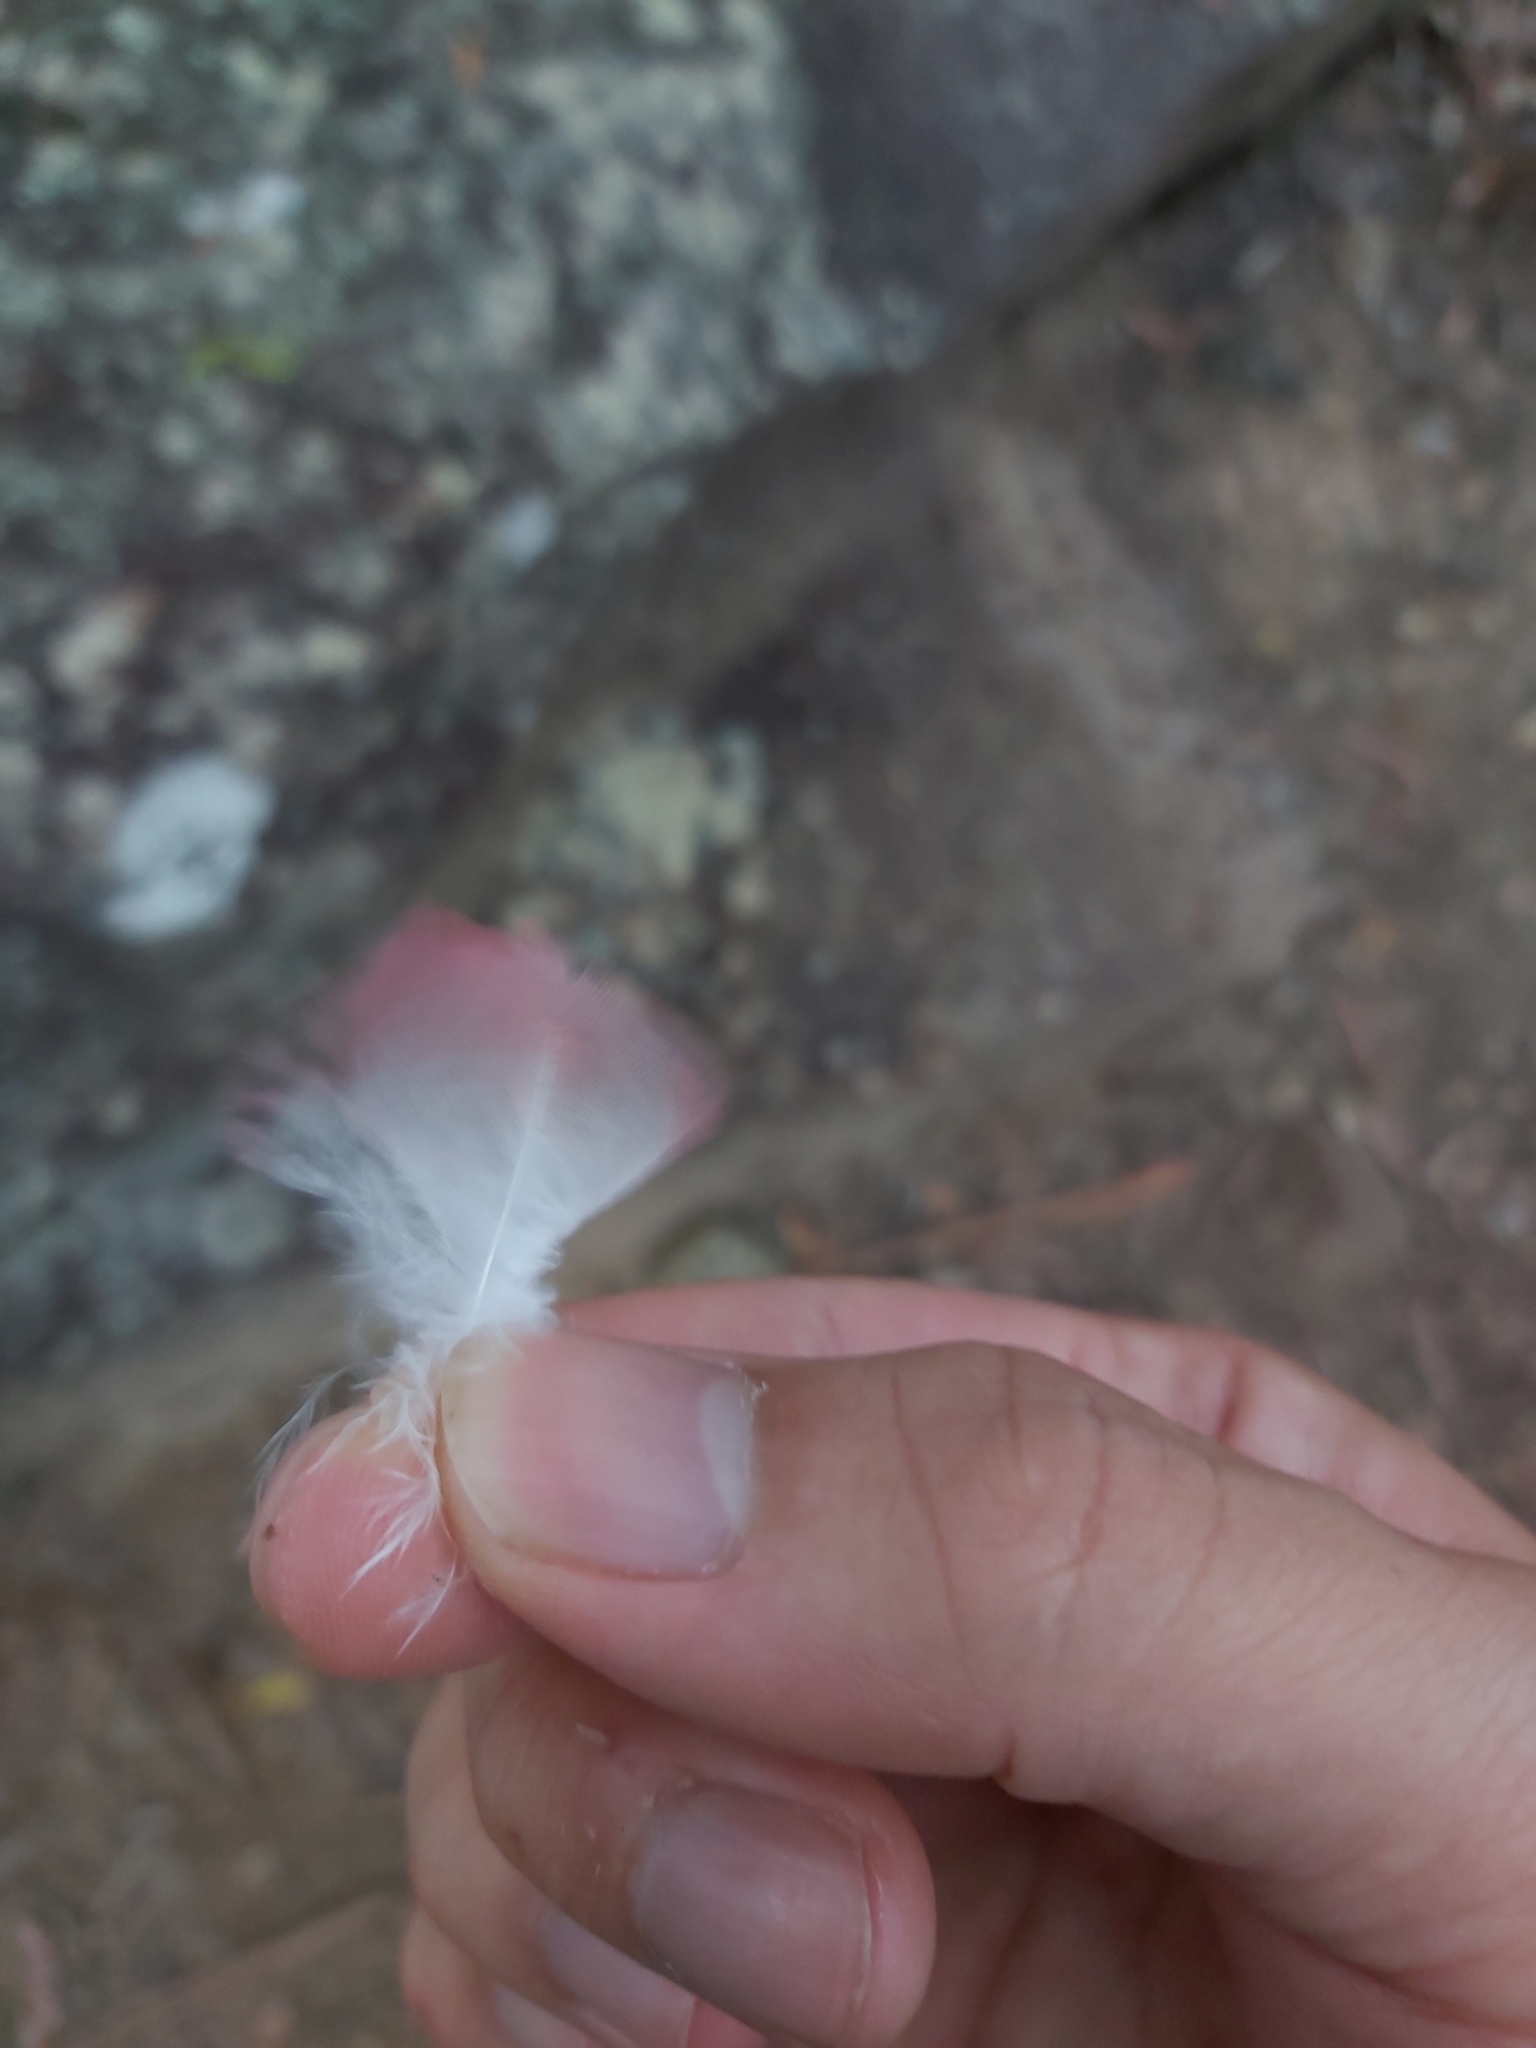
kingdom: Animalia
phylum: Chordata
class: Aves
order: Psittaciformes
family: Psittacidae
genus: Eolophus
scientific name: Eolophus roseicapilla
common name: Galah
